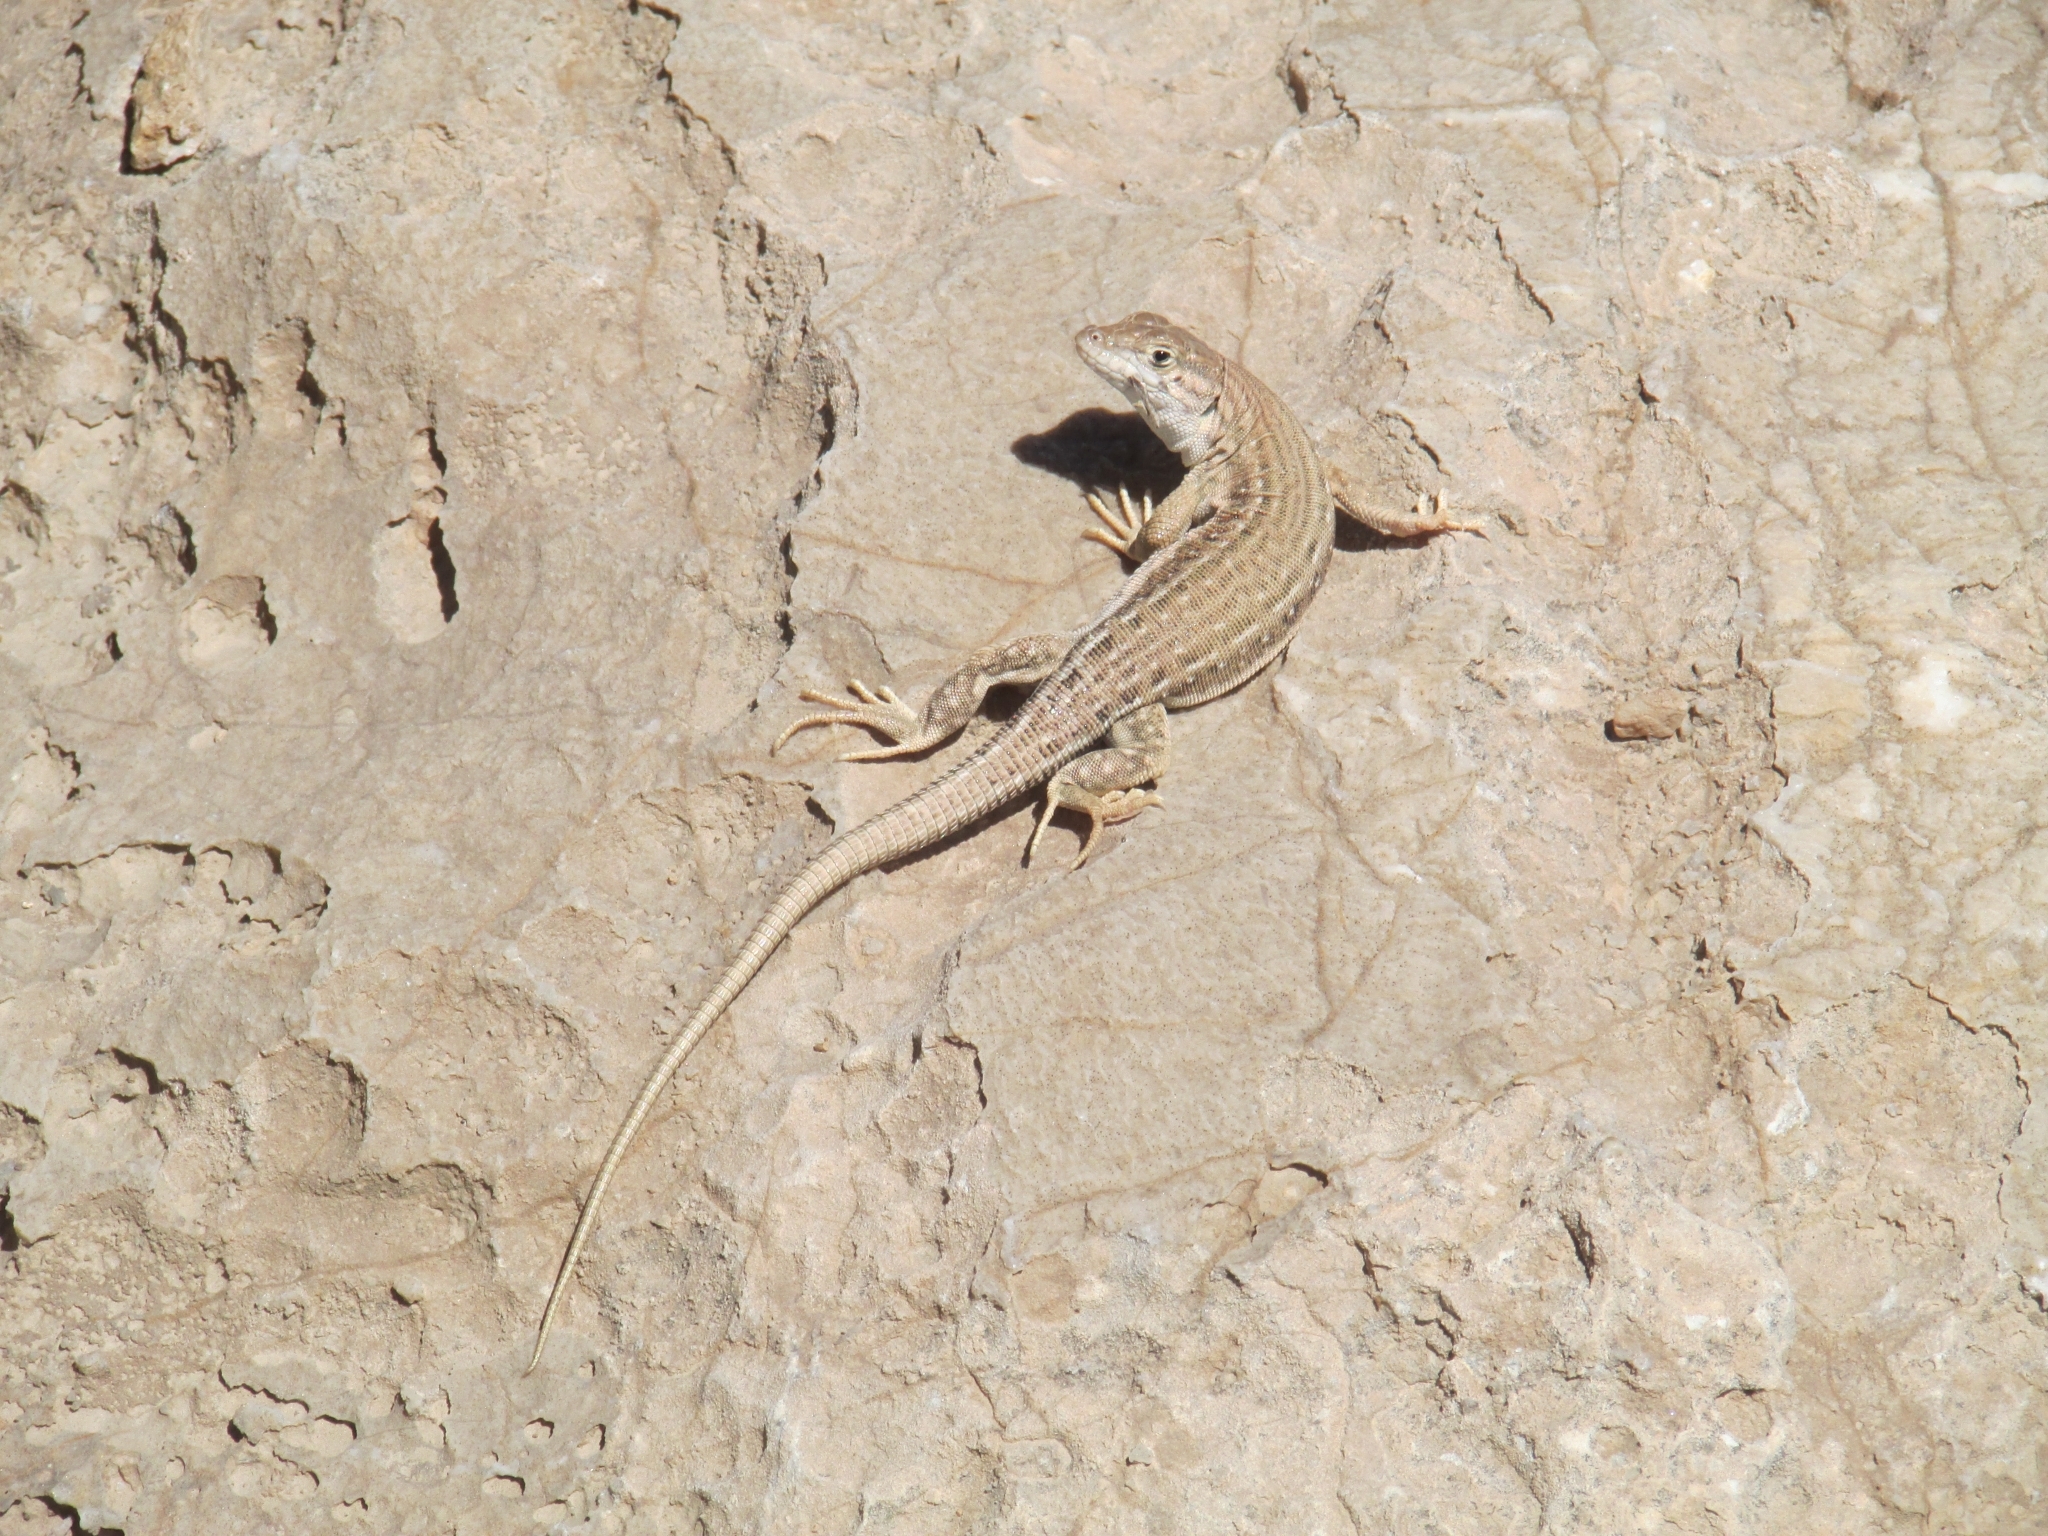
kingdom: Animalia
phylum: Chordata
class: Squamata
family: Lacertidae
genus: Eremias
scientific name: Eremias persica
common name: Aralo-caspian racerunner
